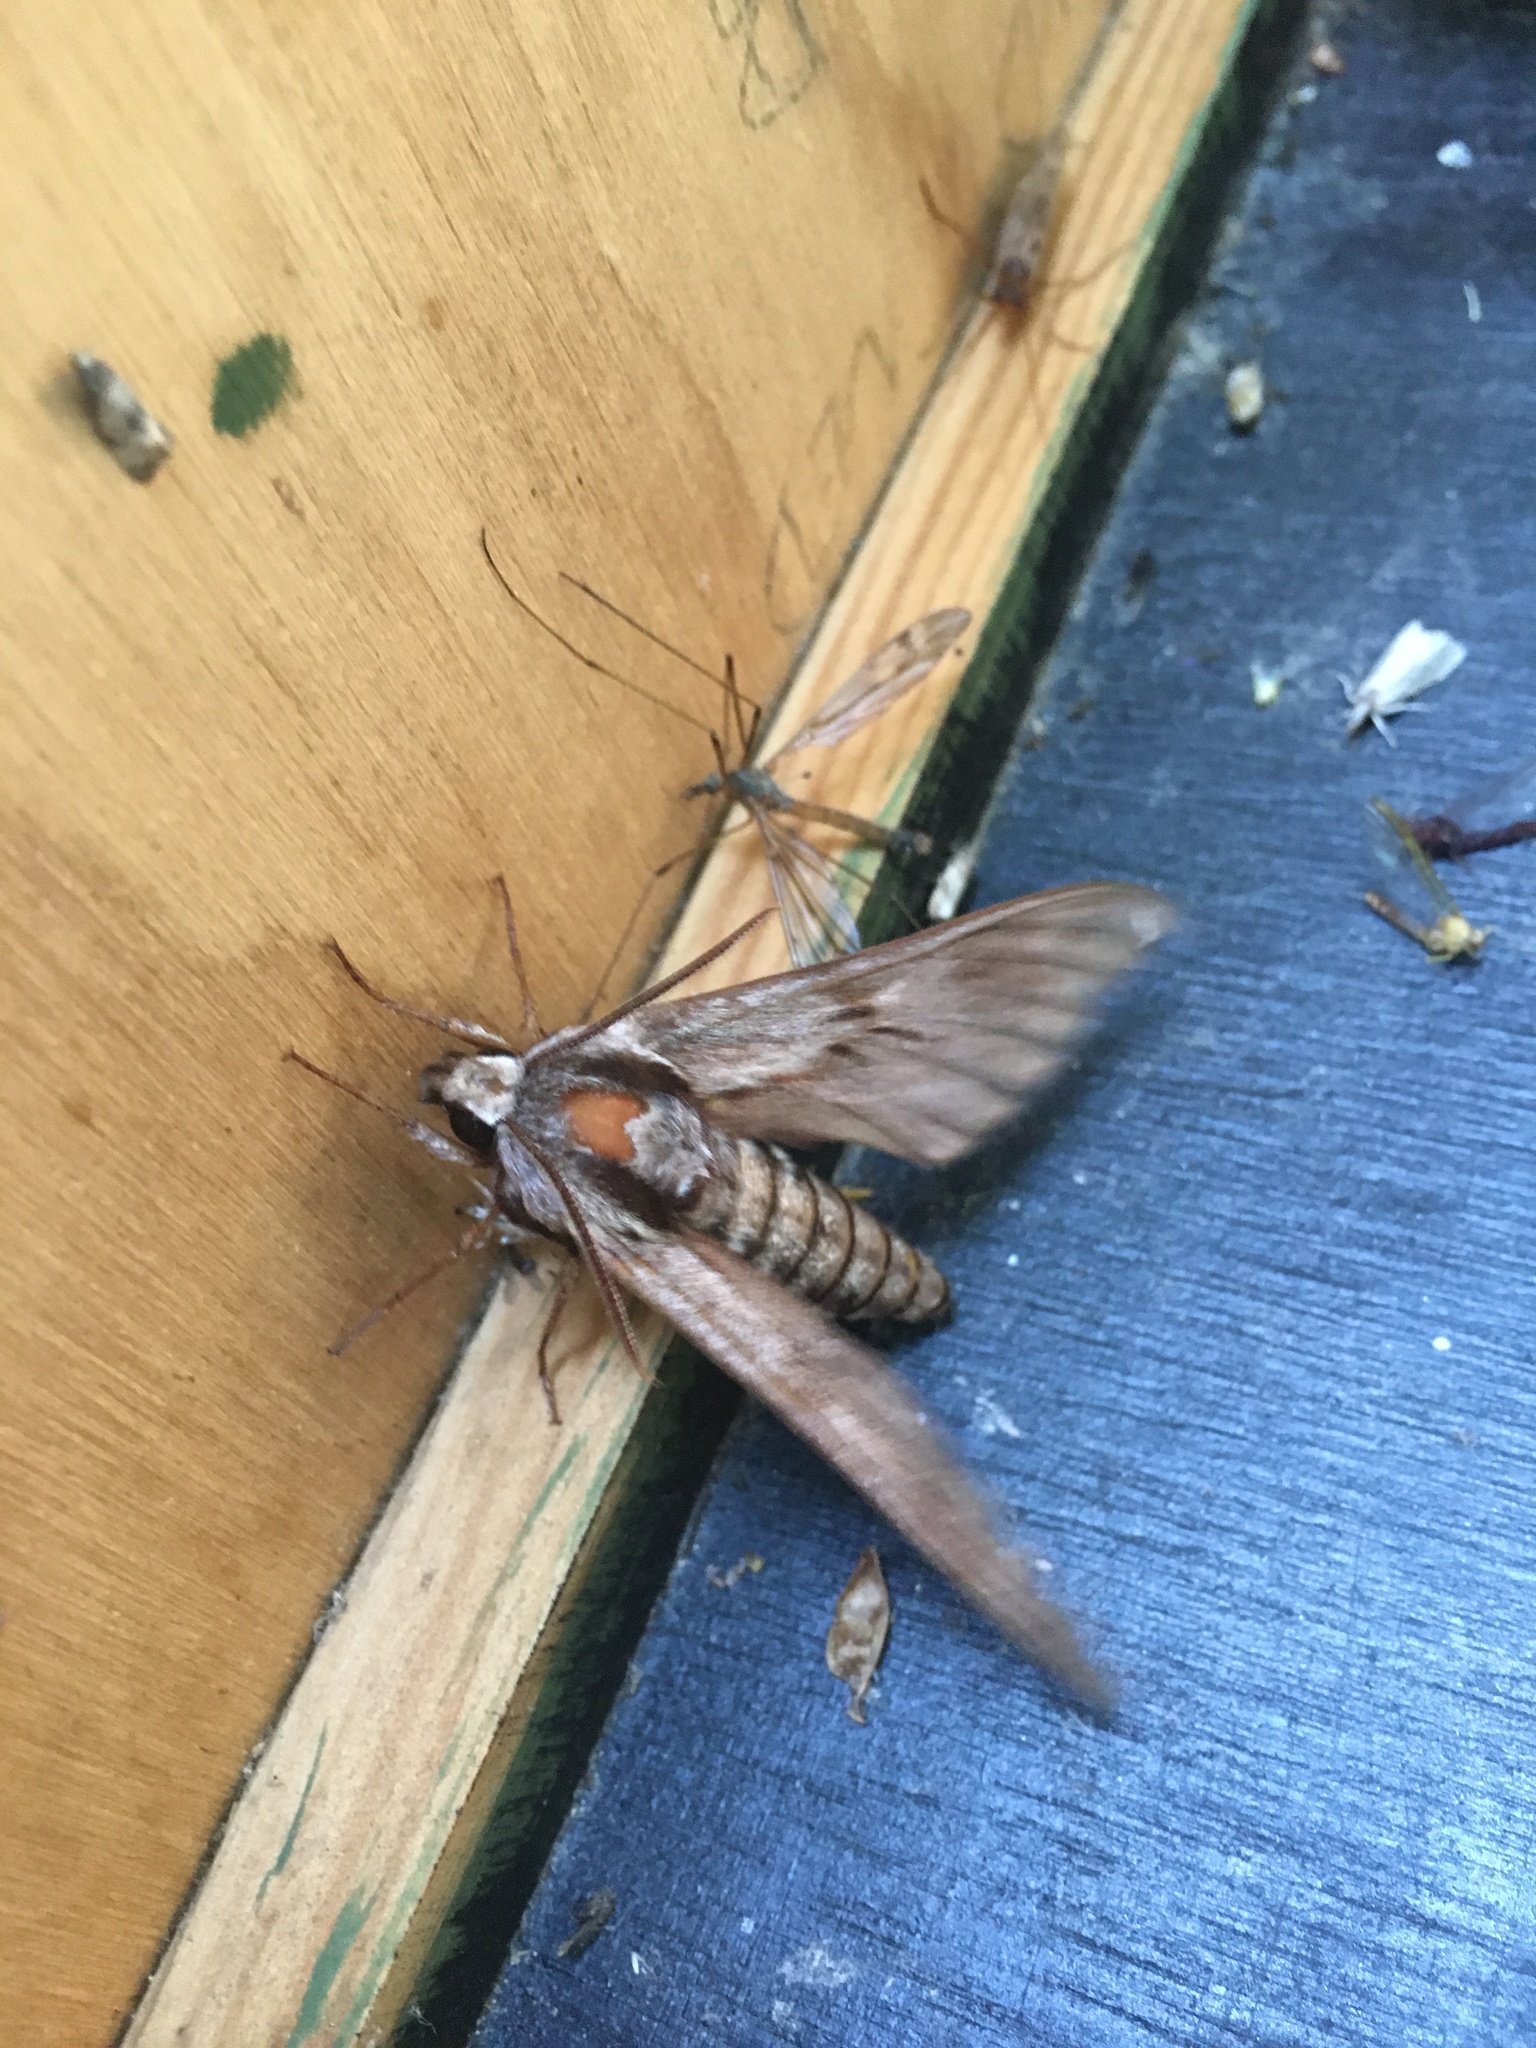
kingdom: Animalia
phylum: Arthropoda
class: Insecta
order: Lepidoptera
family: Sphingidae
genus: Sphinx
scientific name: Sphinx pinastri
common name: Pine hawk-moth
